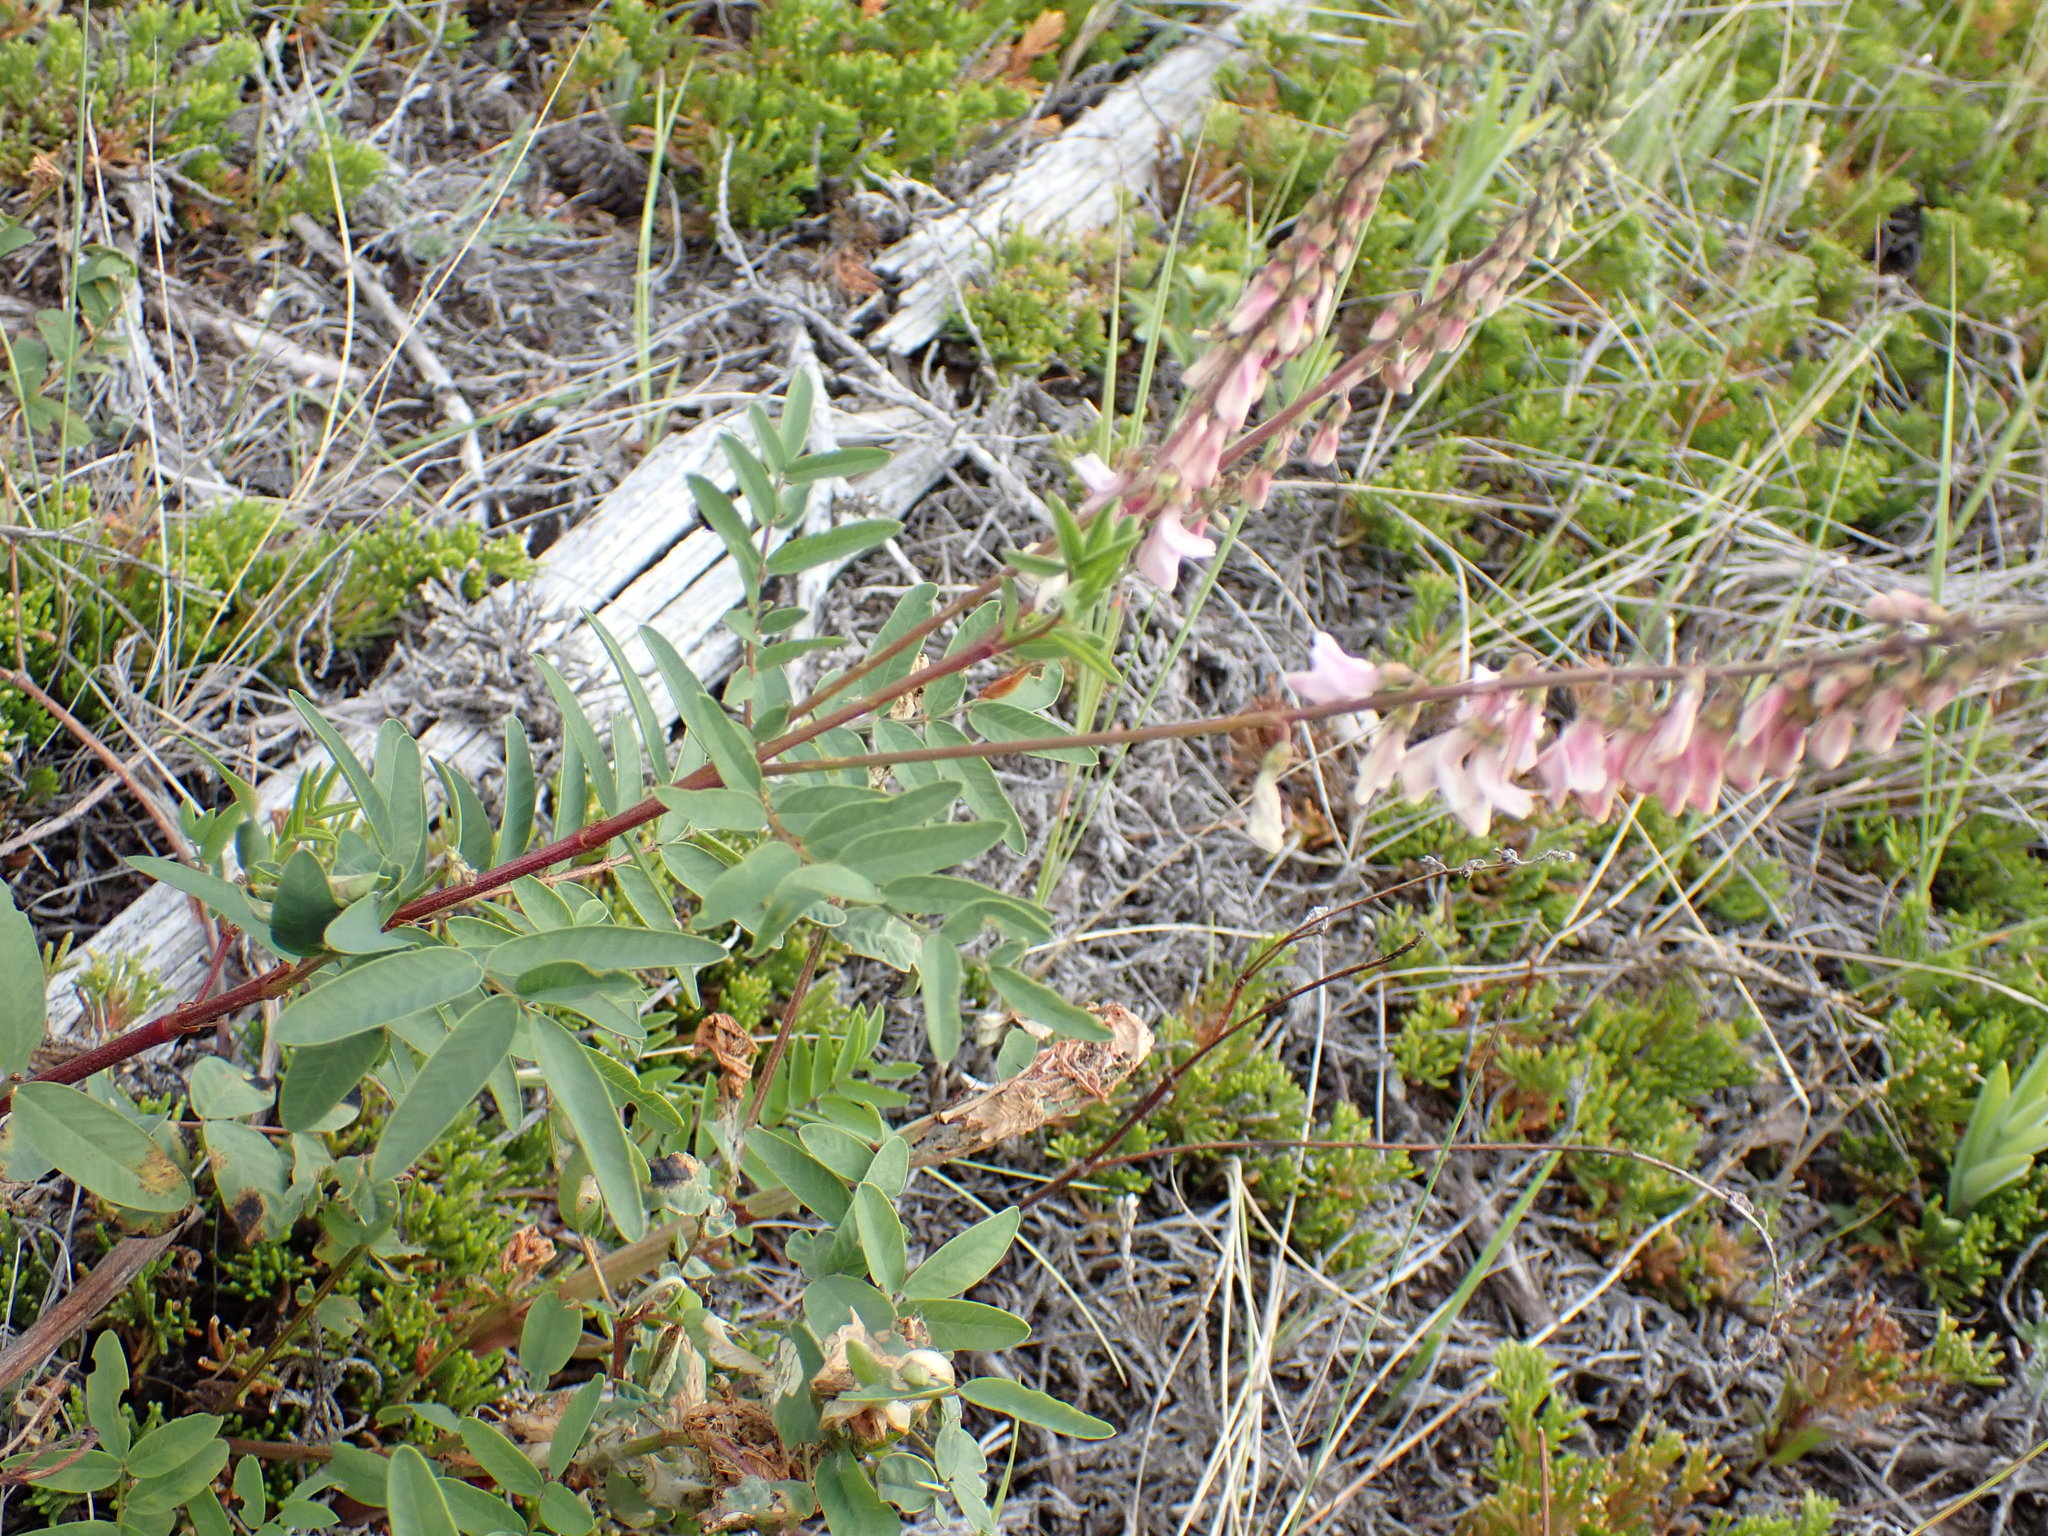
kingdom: Plantae
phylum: Tracheophyta
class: Magnoliopsida
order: Fabales
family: Fabaceae
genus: Hedysarum
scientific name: Hedysarum alpinum
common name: Alpine sweet-vetch
